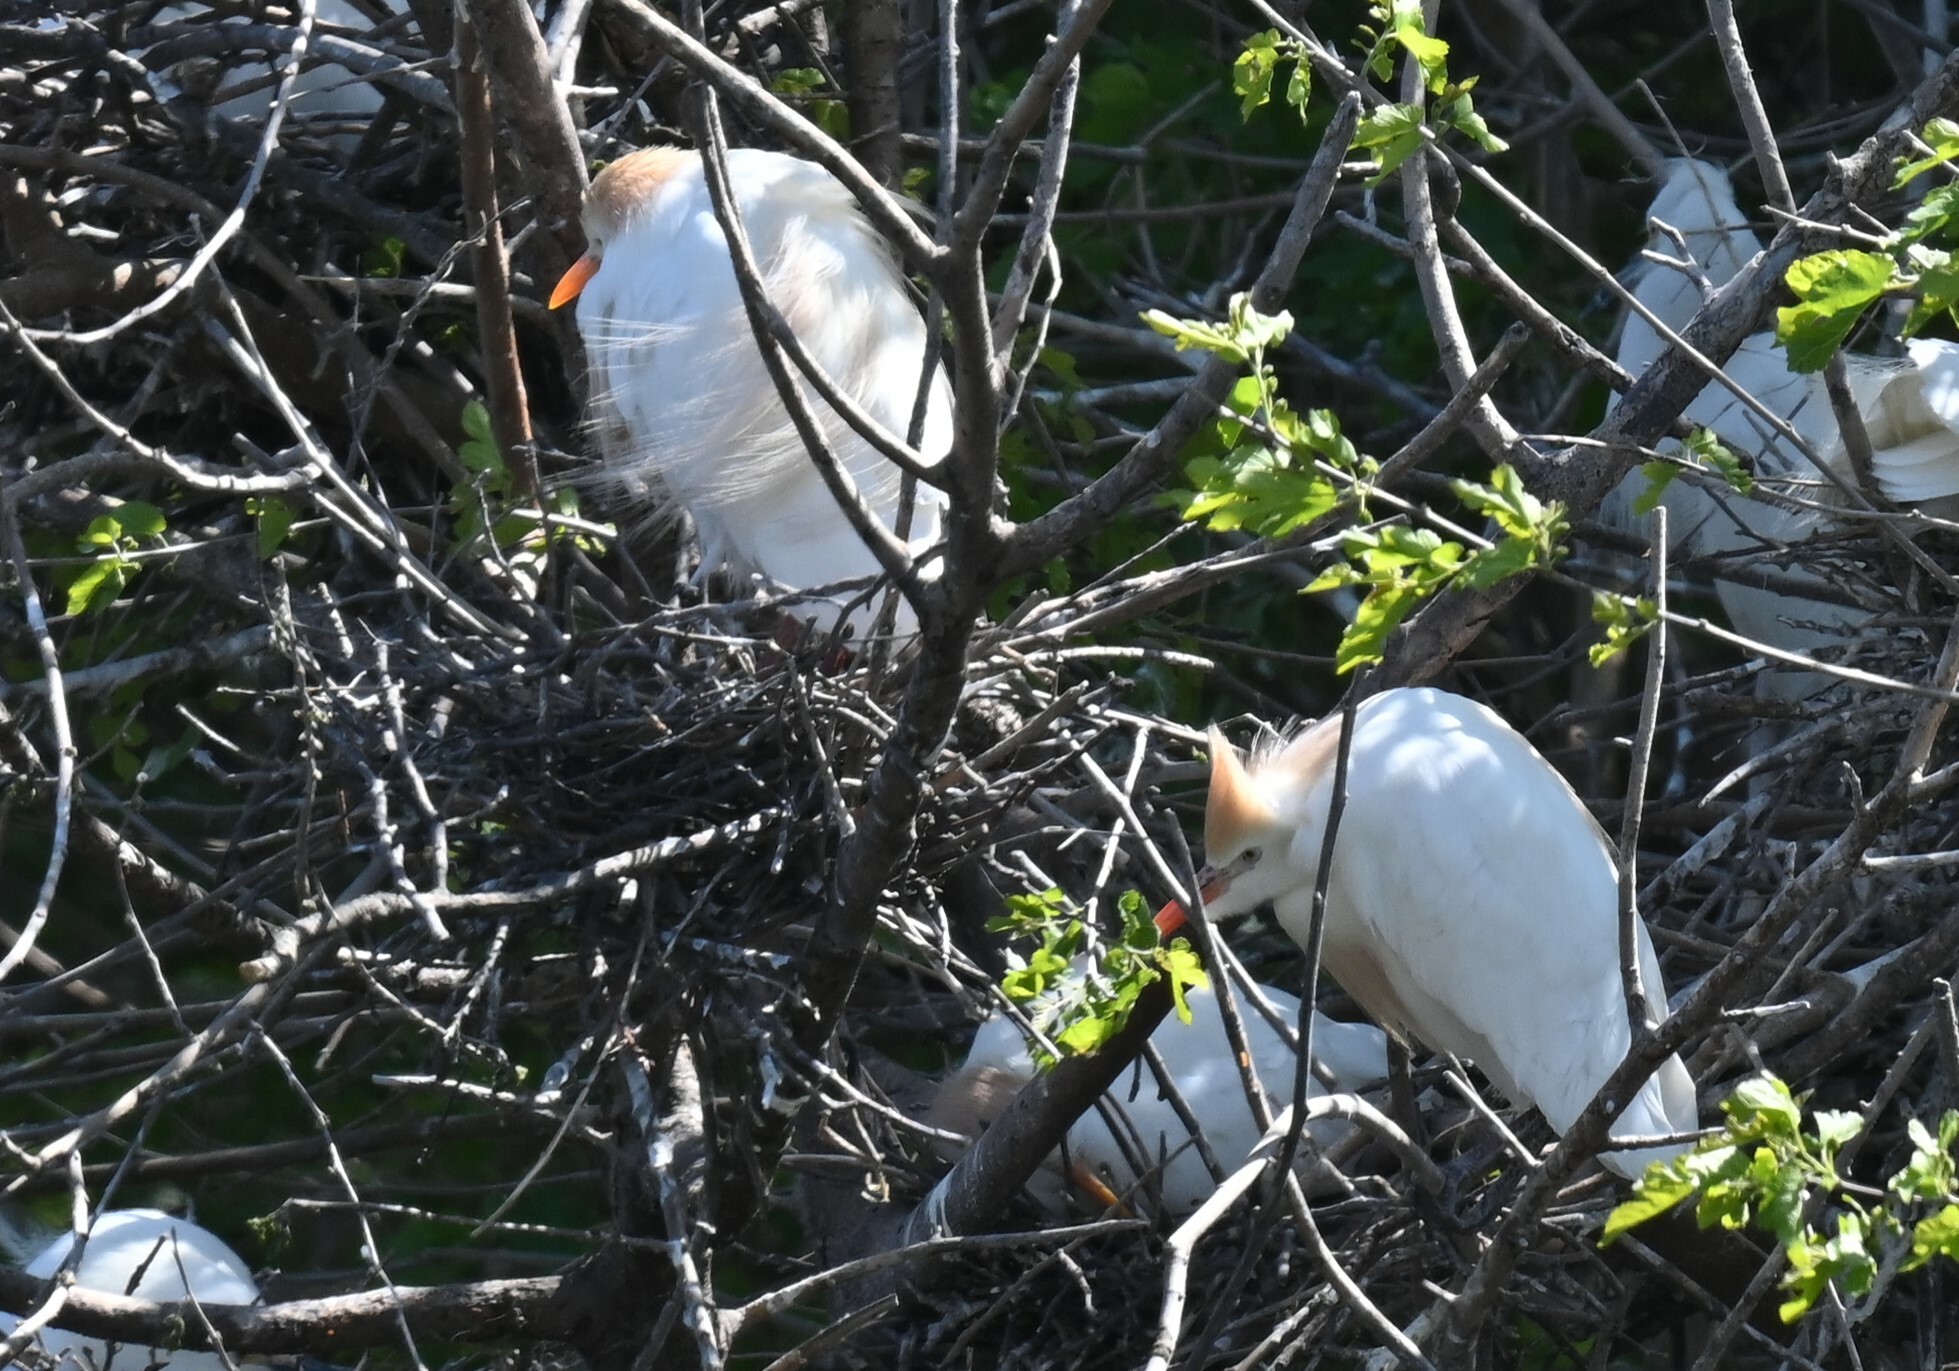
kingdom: Animalia
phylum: Chordata
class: Aves
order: Pelecaniformes
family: Ardeidae
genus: Bubulcus
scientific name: Bubulcus ibis
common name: Cattle egret
